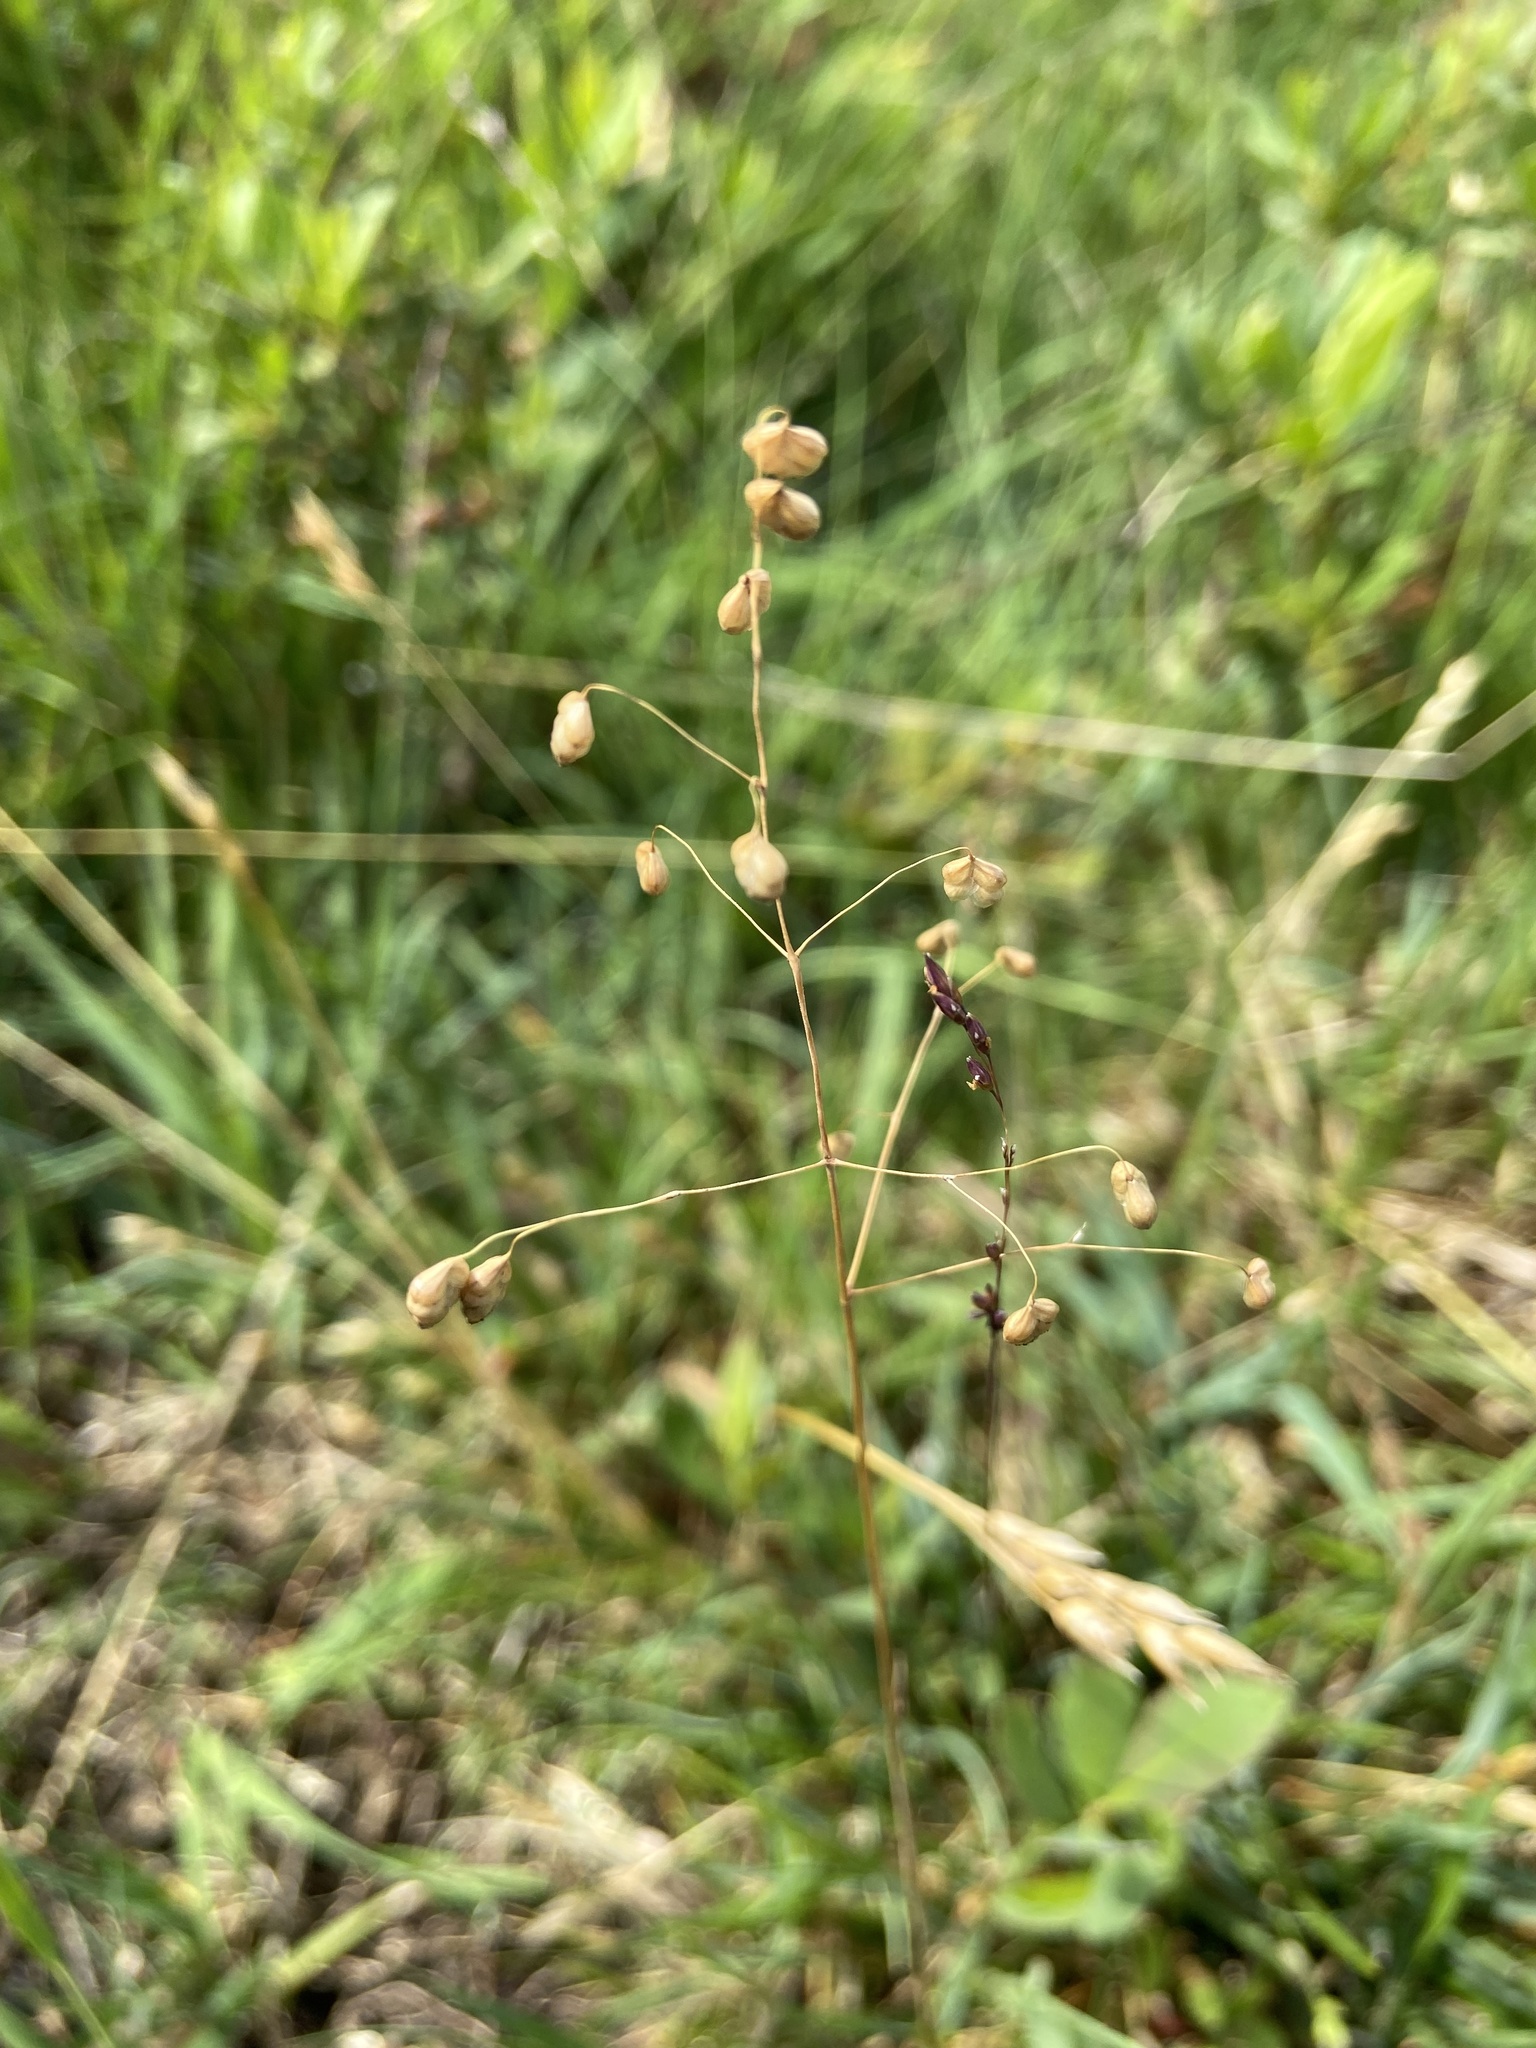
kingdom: Plantae
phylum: Tracheophyta
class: Liliopsida
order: Poales
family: Poaceae
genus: Briza
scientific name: Briza media
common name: Quaking grass
